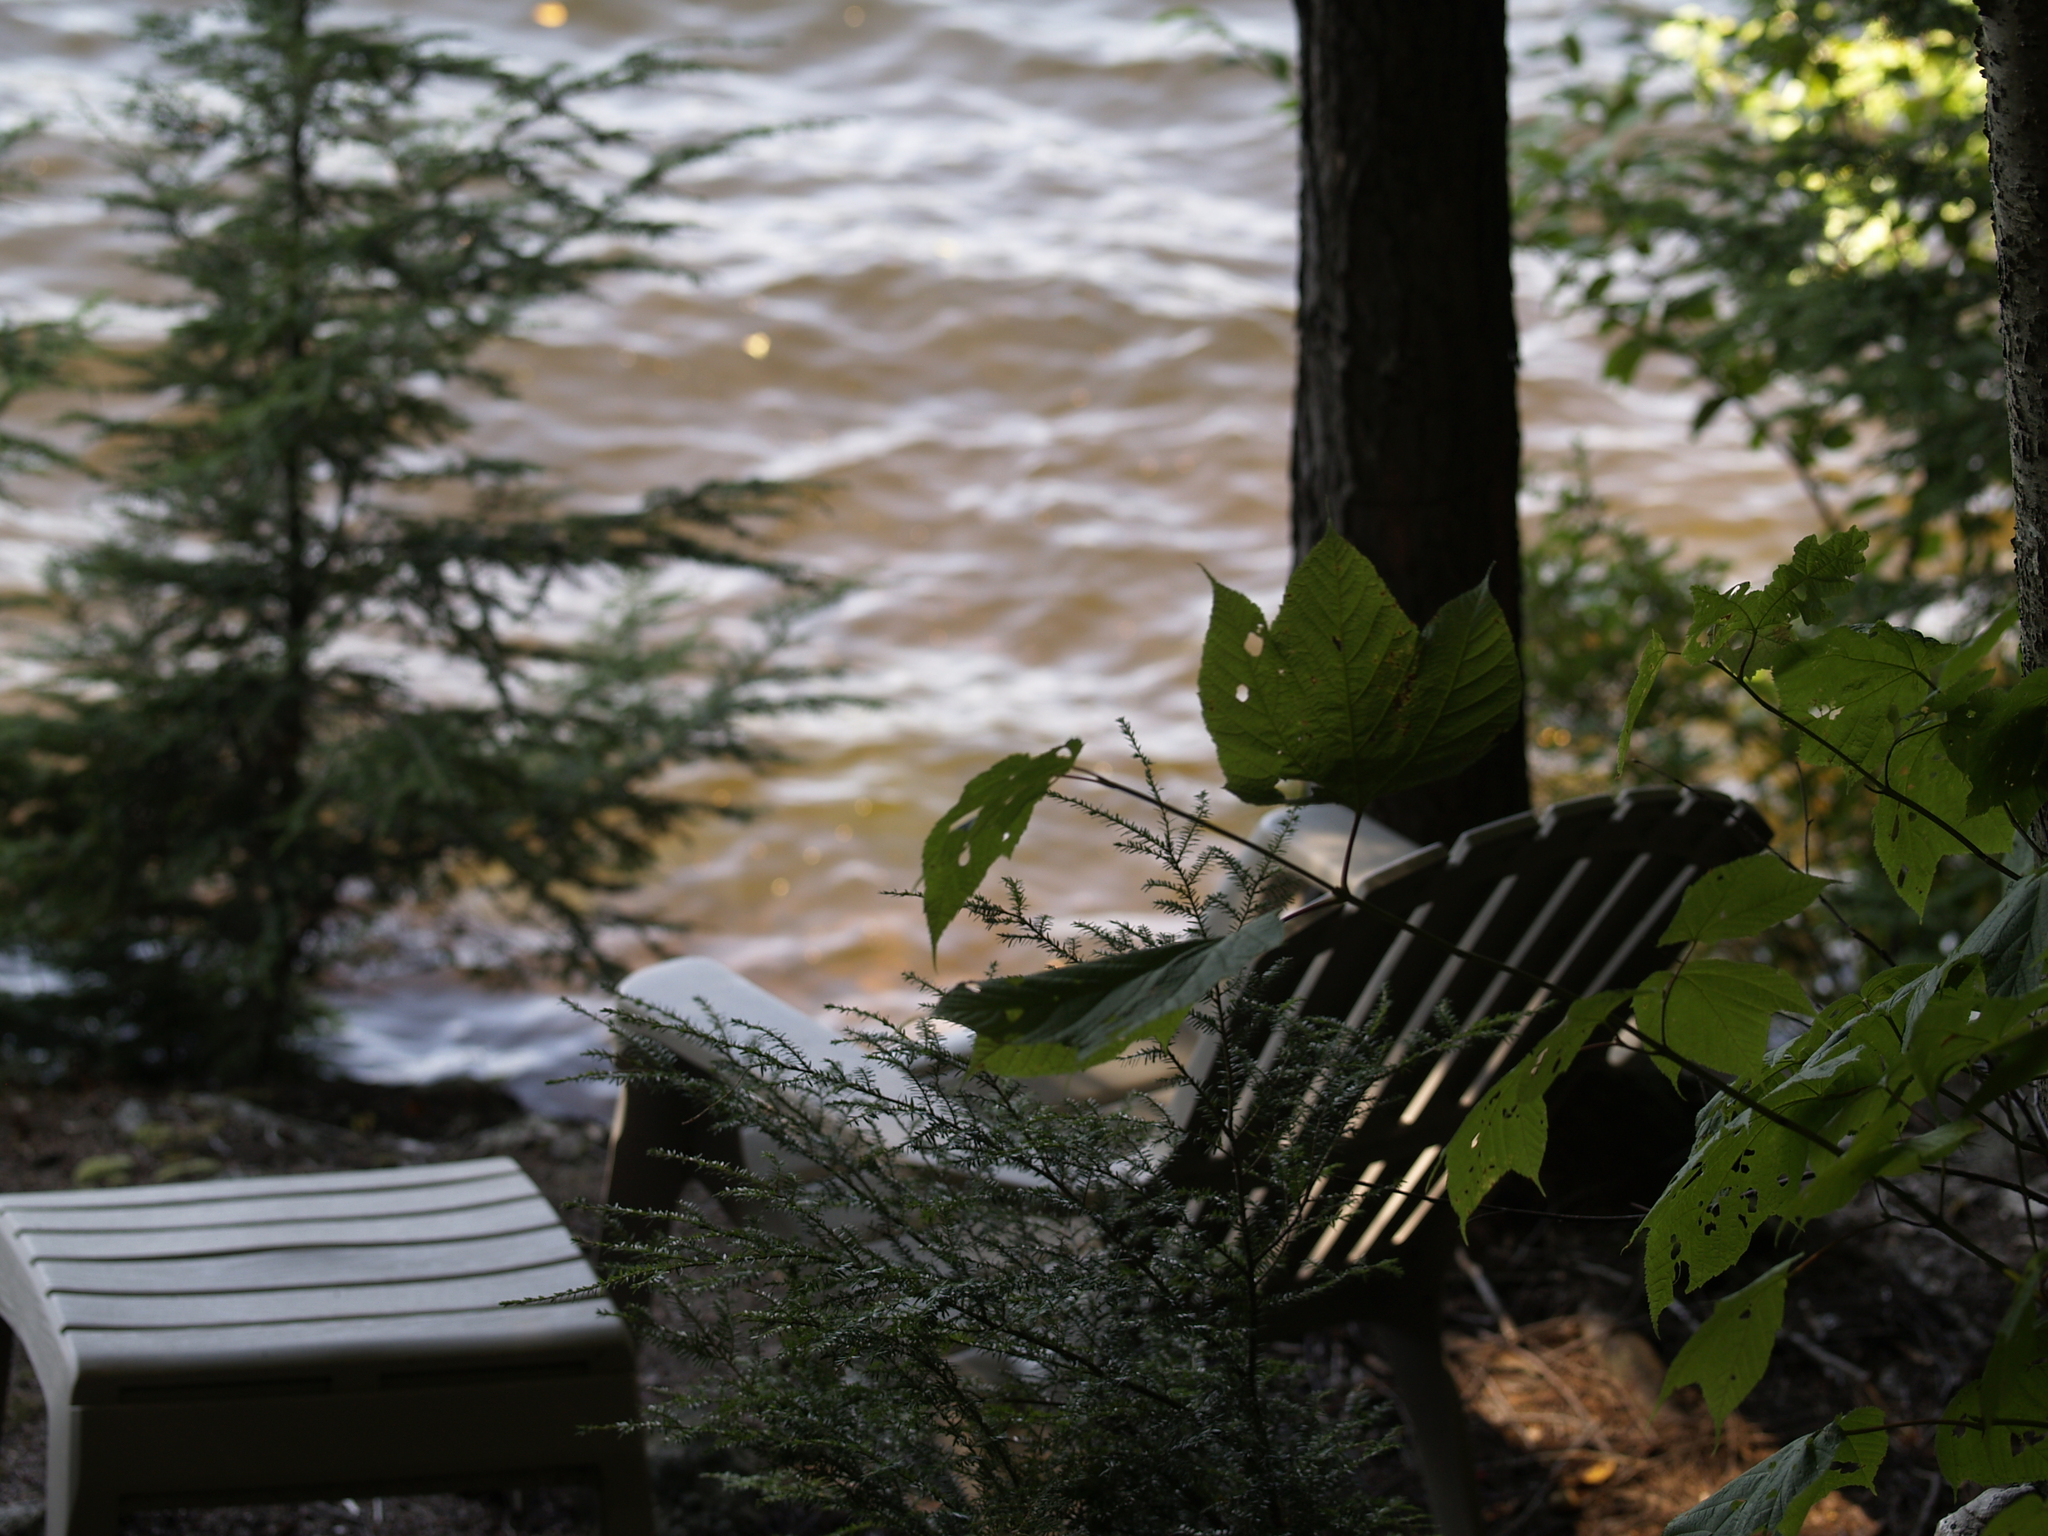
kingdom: Plantae
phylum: Tracheophyta
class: Pinopsida
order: Pinales
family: Pinaceae
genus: Tsuga
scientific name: Tsuga canadensis
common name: Eastern hemlock
